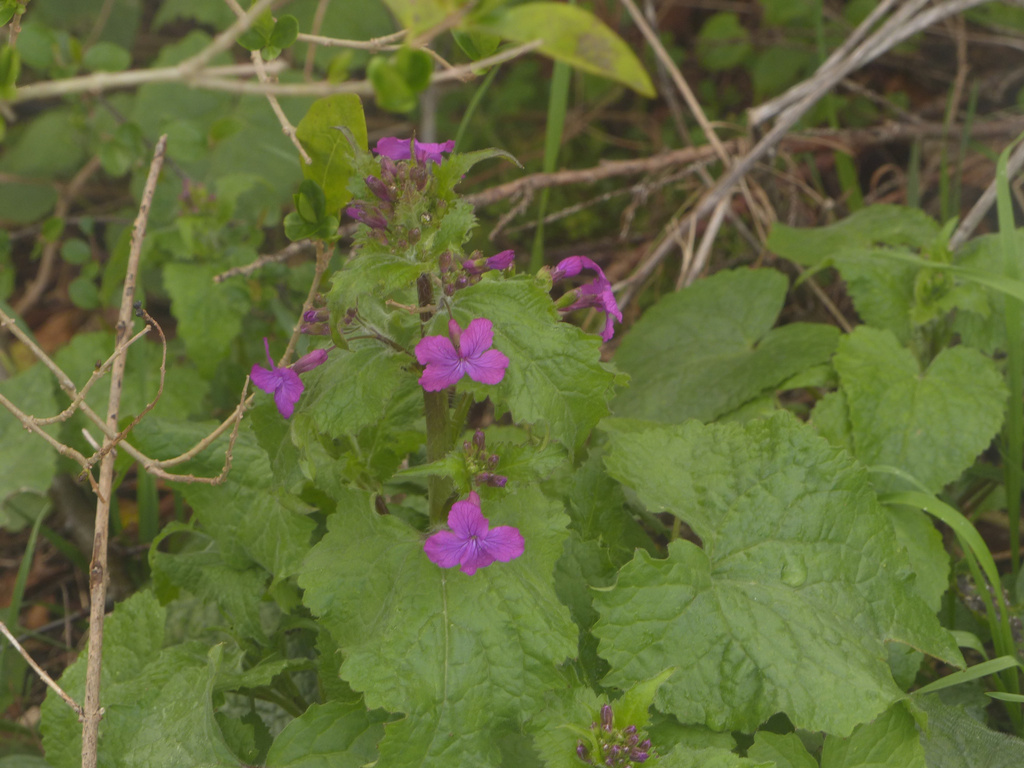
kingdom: Plantae
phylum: Tracheophyta
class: Magnoliopsida
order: Brassicales
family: Brassicaceae
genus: Lunaria
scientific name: Lunaria annua
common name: Honesty
